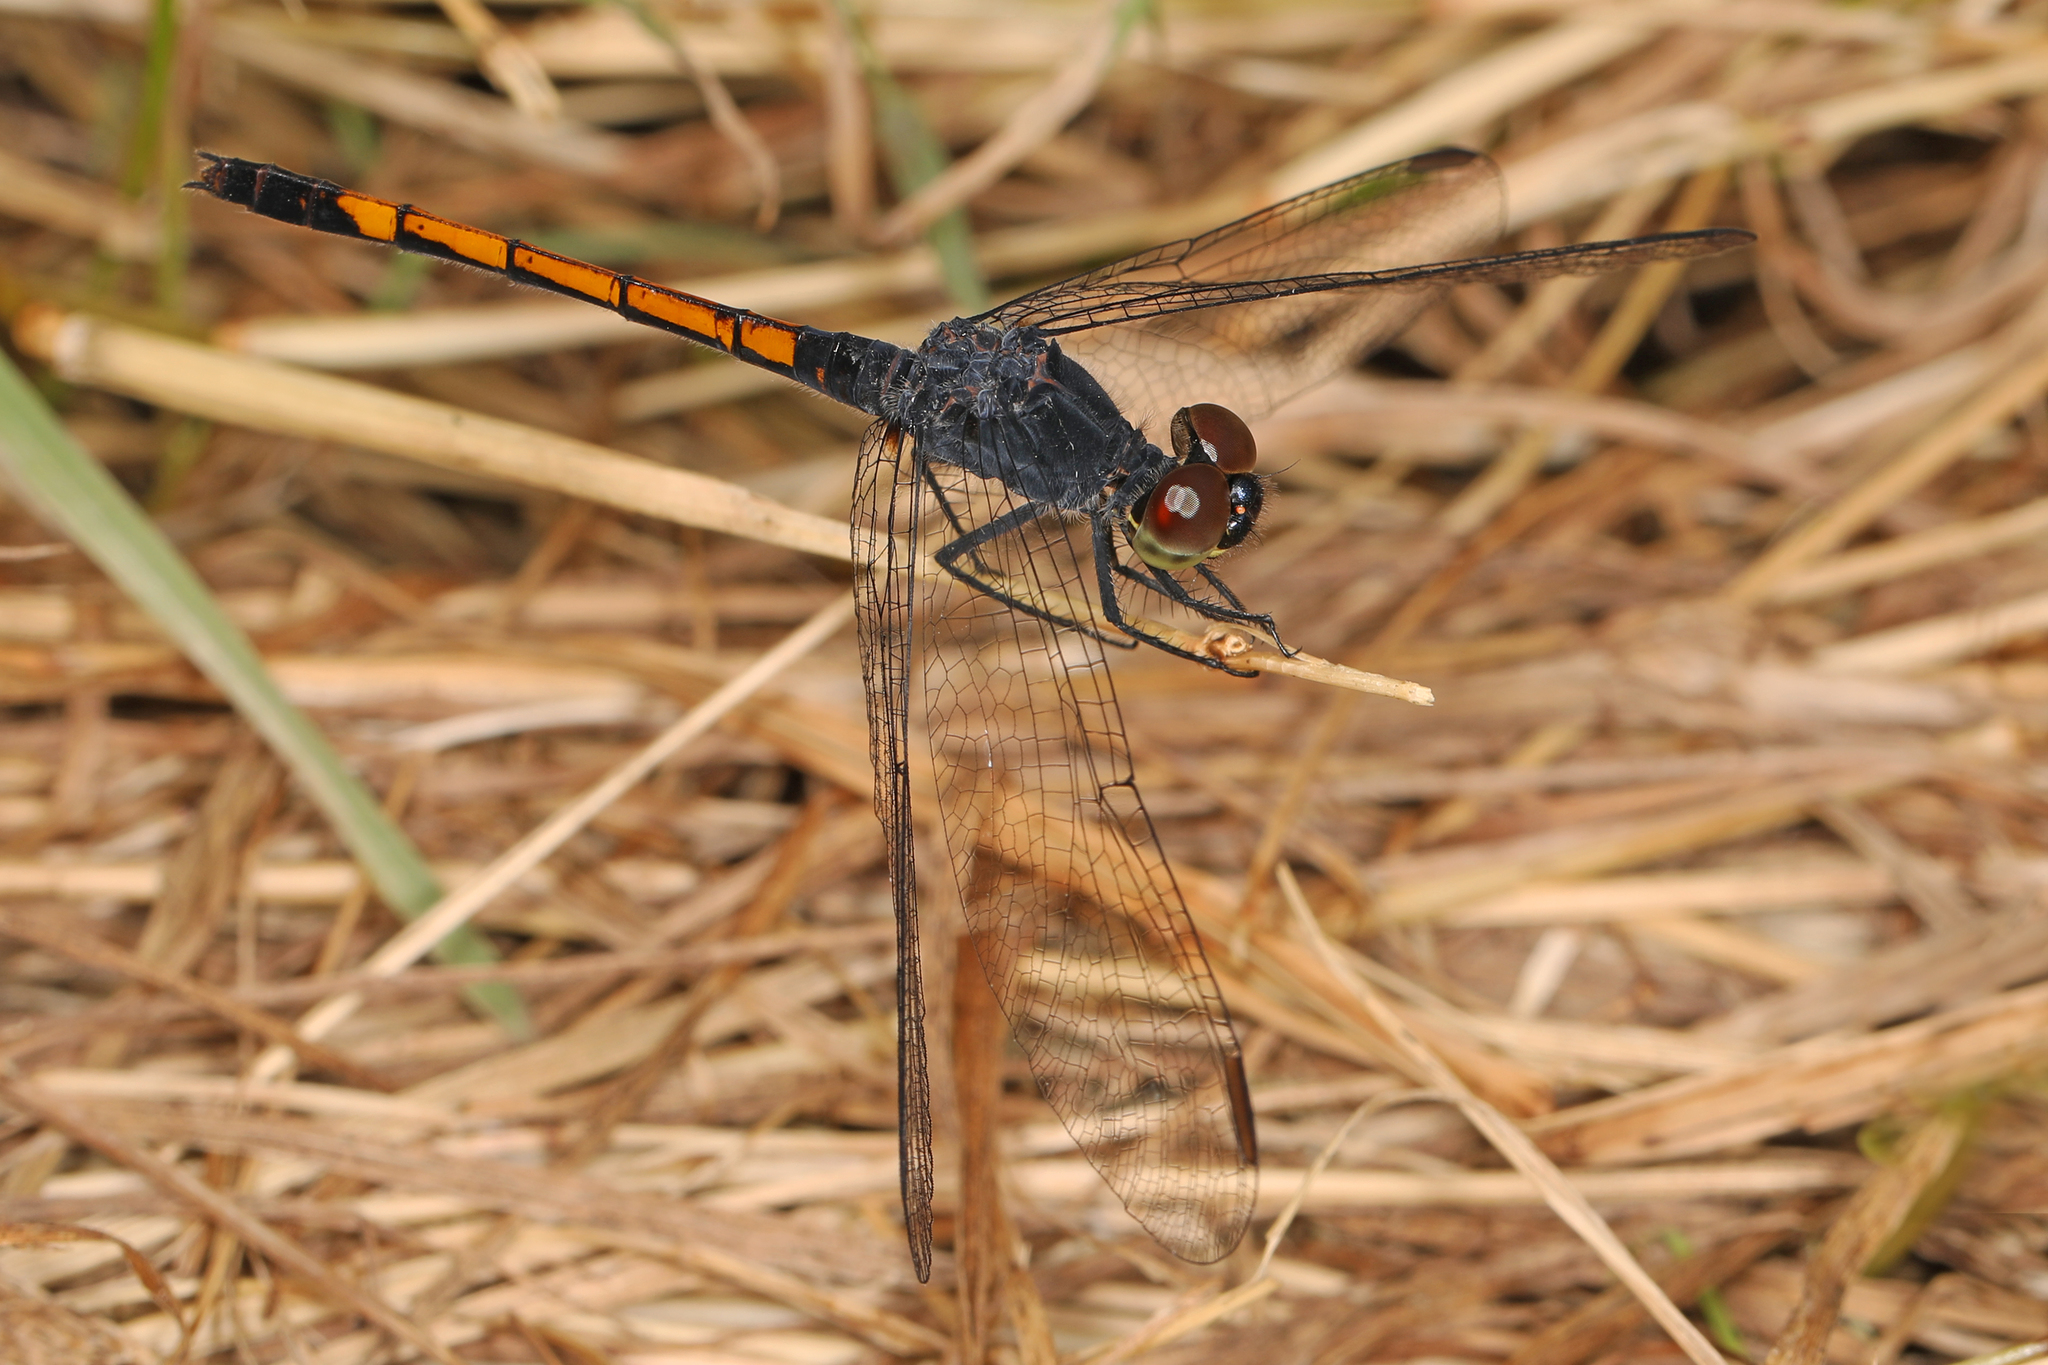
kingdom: Animalia
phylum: Arthropoda
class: Insecta
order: Odonata
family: Libellulidae
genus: Erythrodiplax
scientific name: Erythrodiplax berenice
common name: Seaside dragonlet
